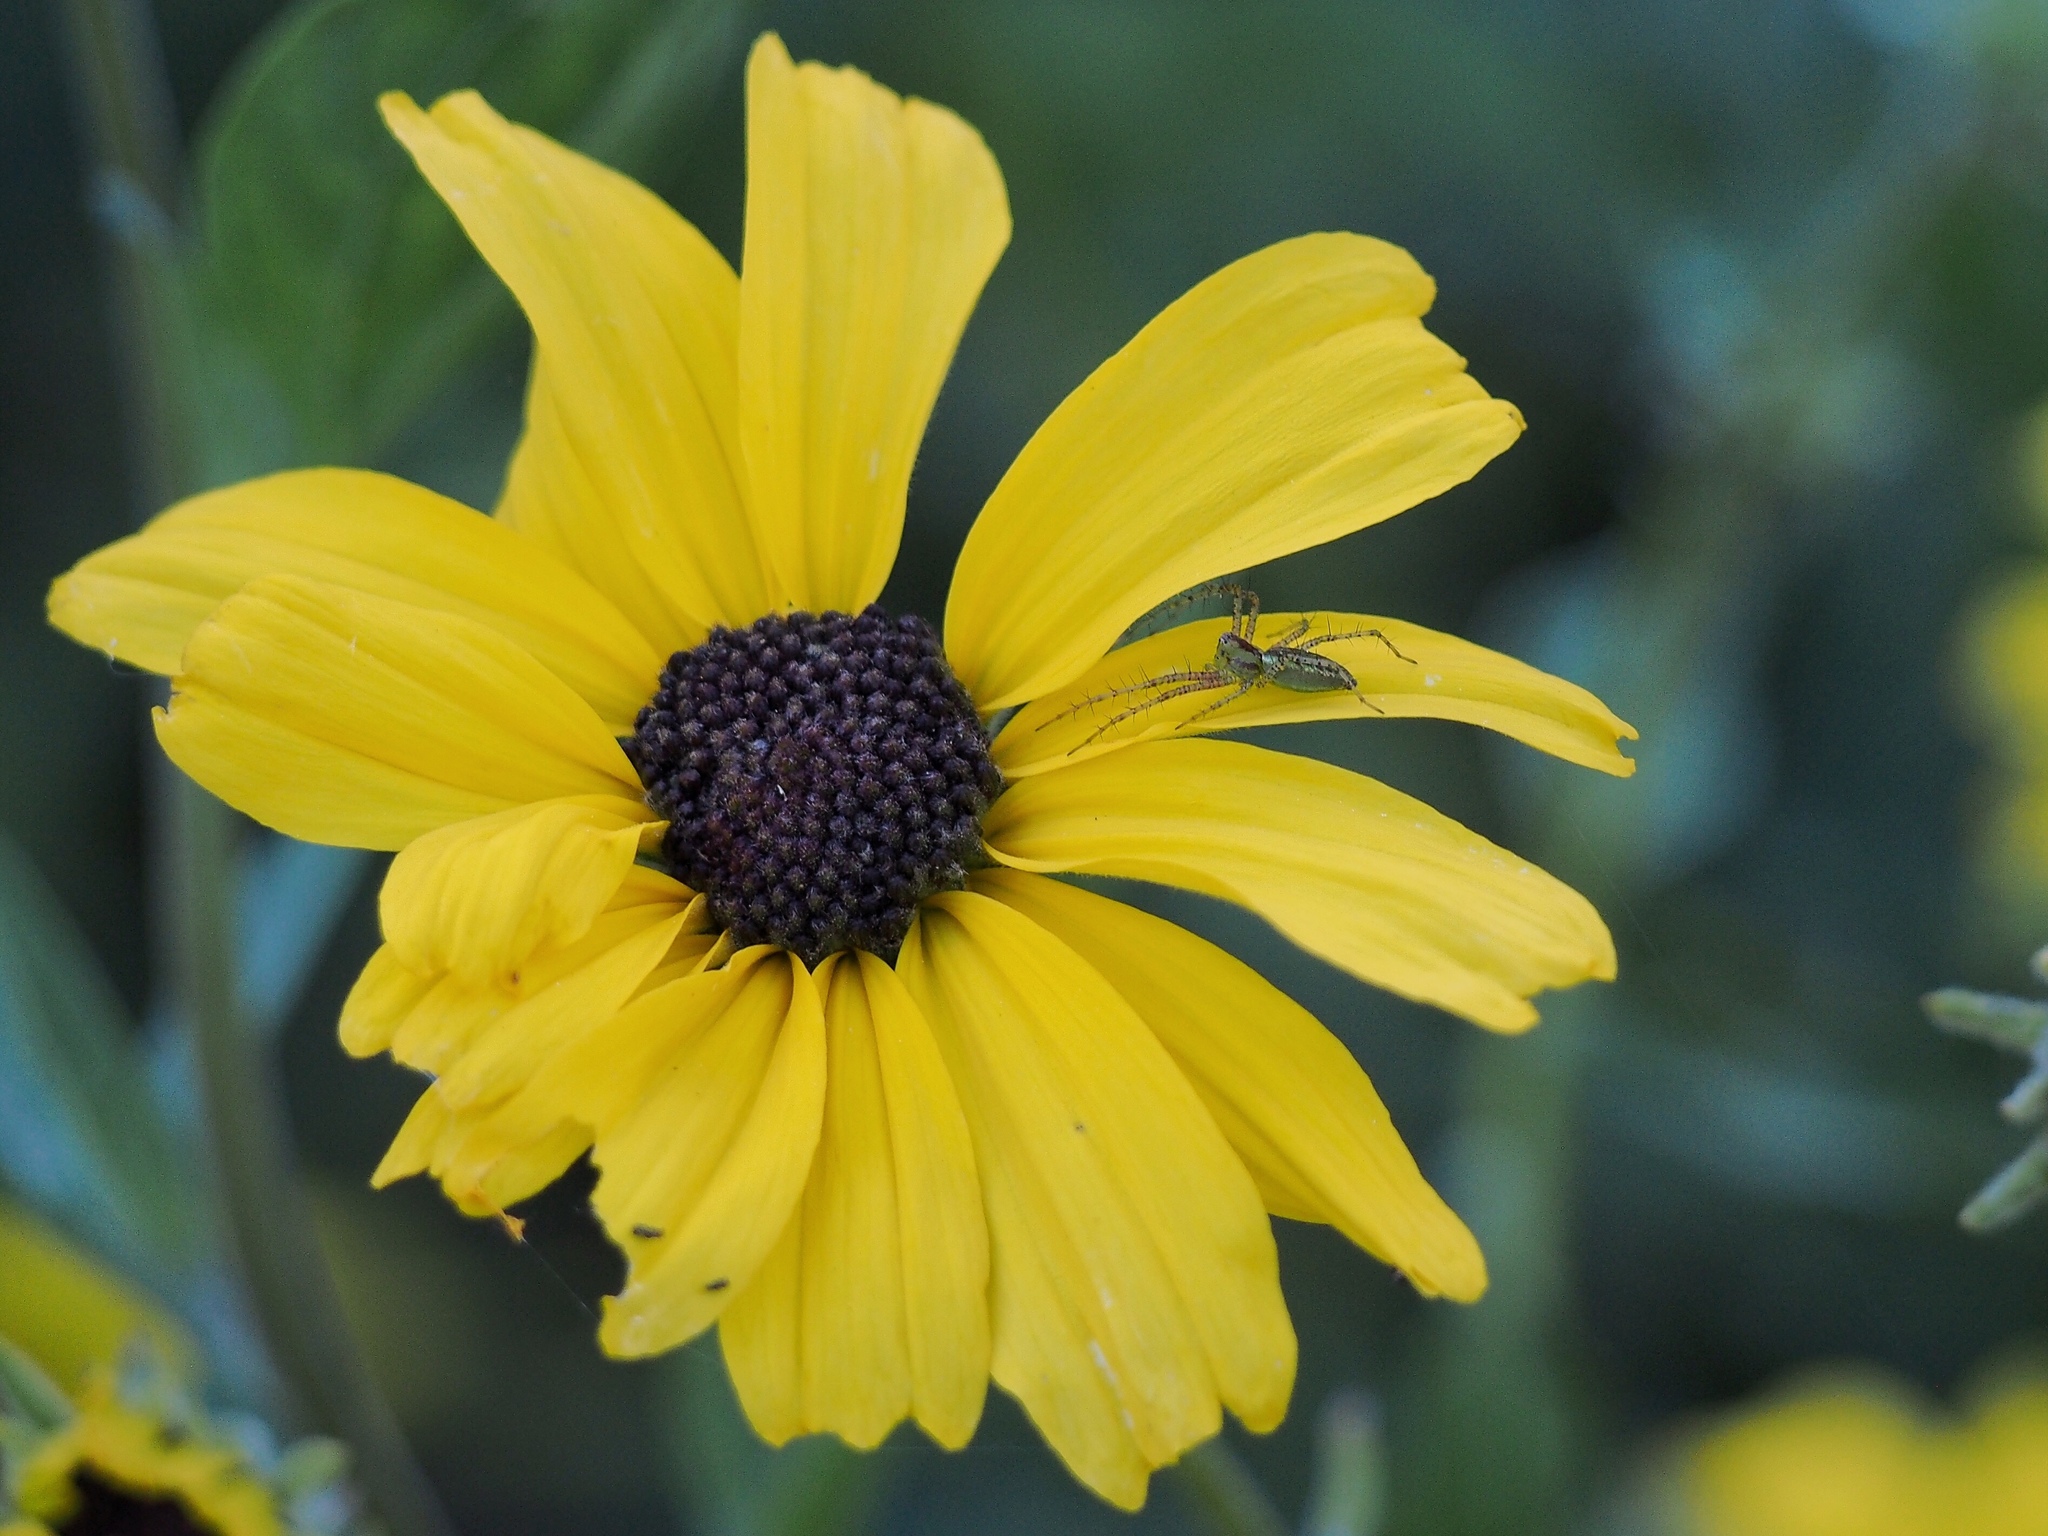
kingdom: Animalia
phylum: Arthropoda
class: Arachnida
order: Araneae
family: Oxyopidae
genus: Peucetia
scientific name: Peucetia viridans
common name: Lynx spiders
